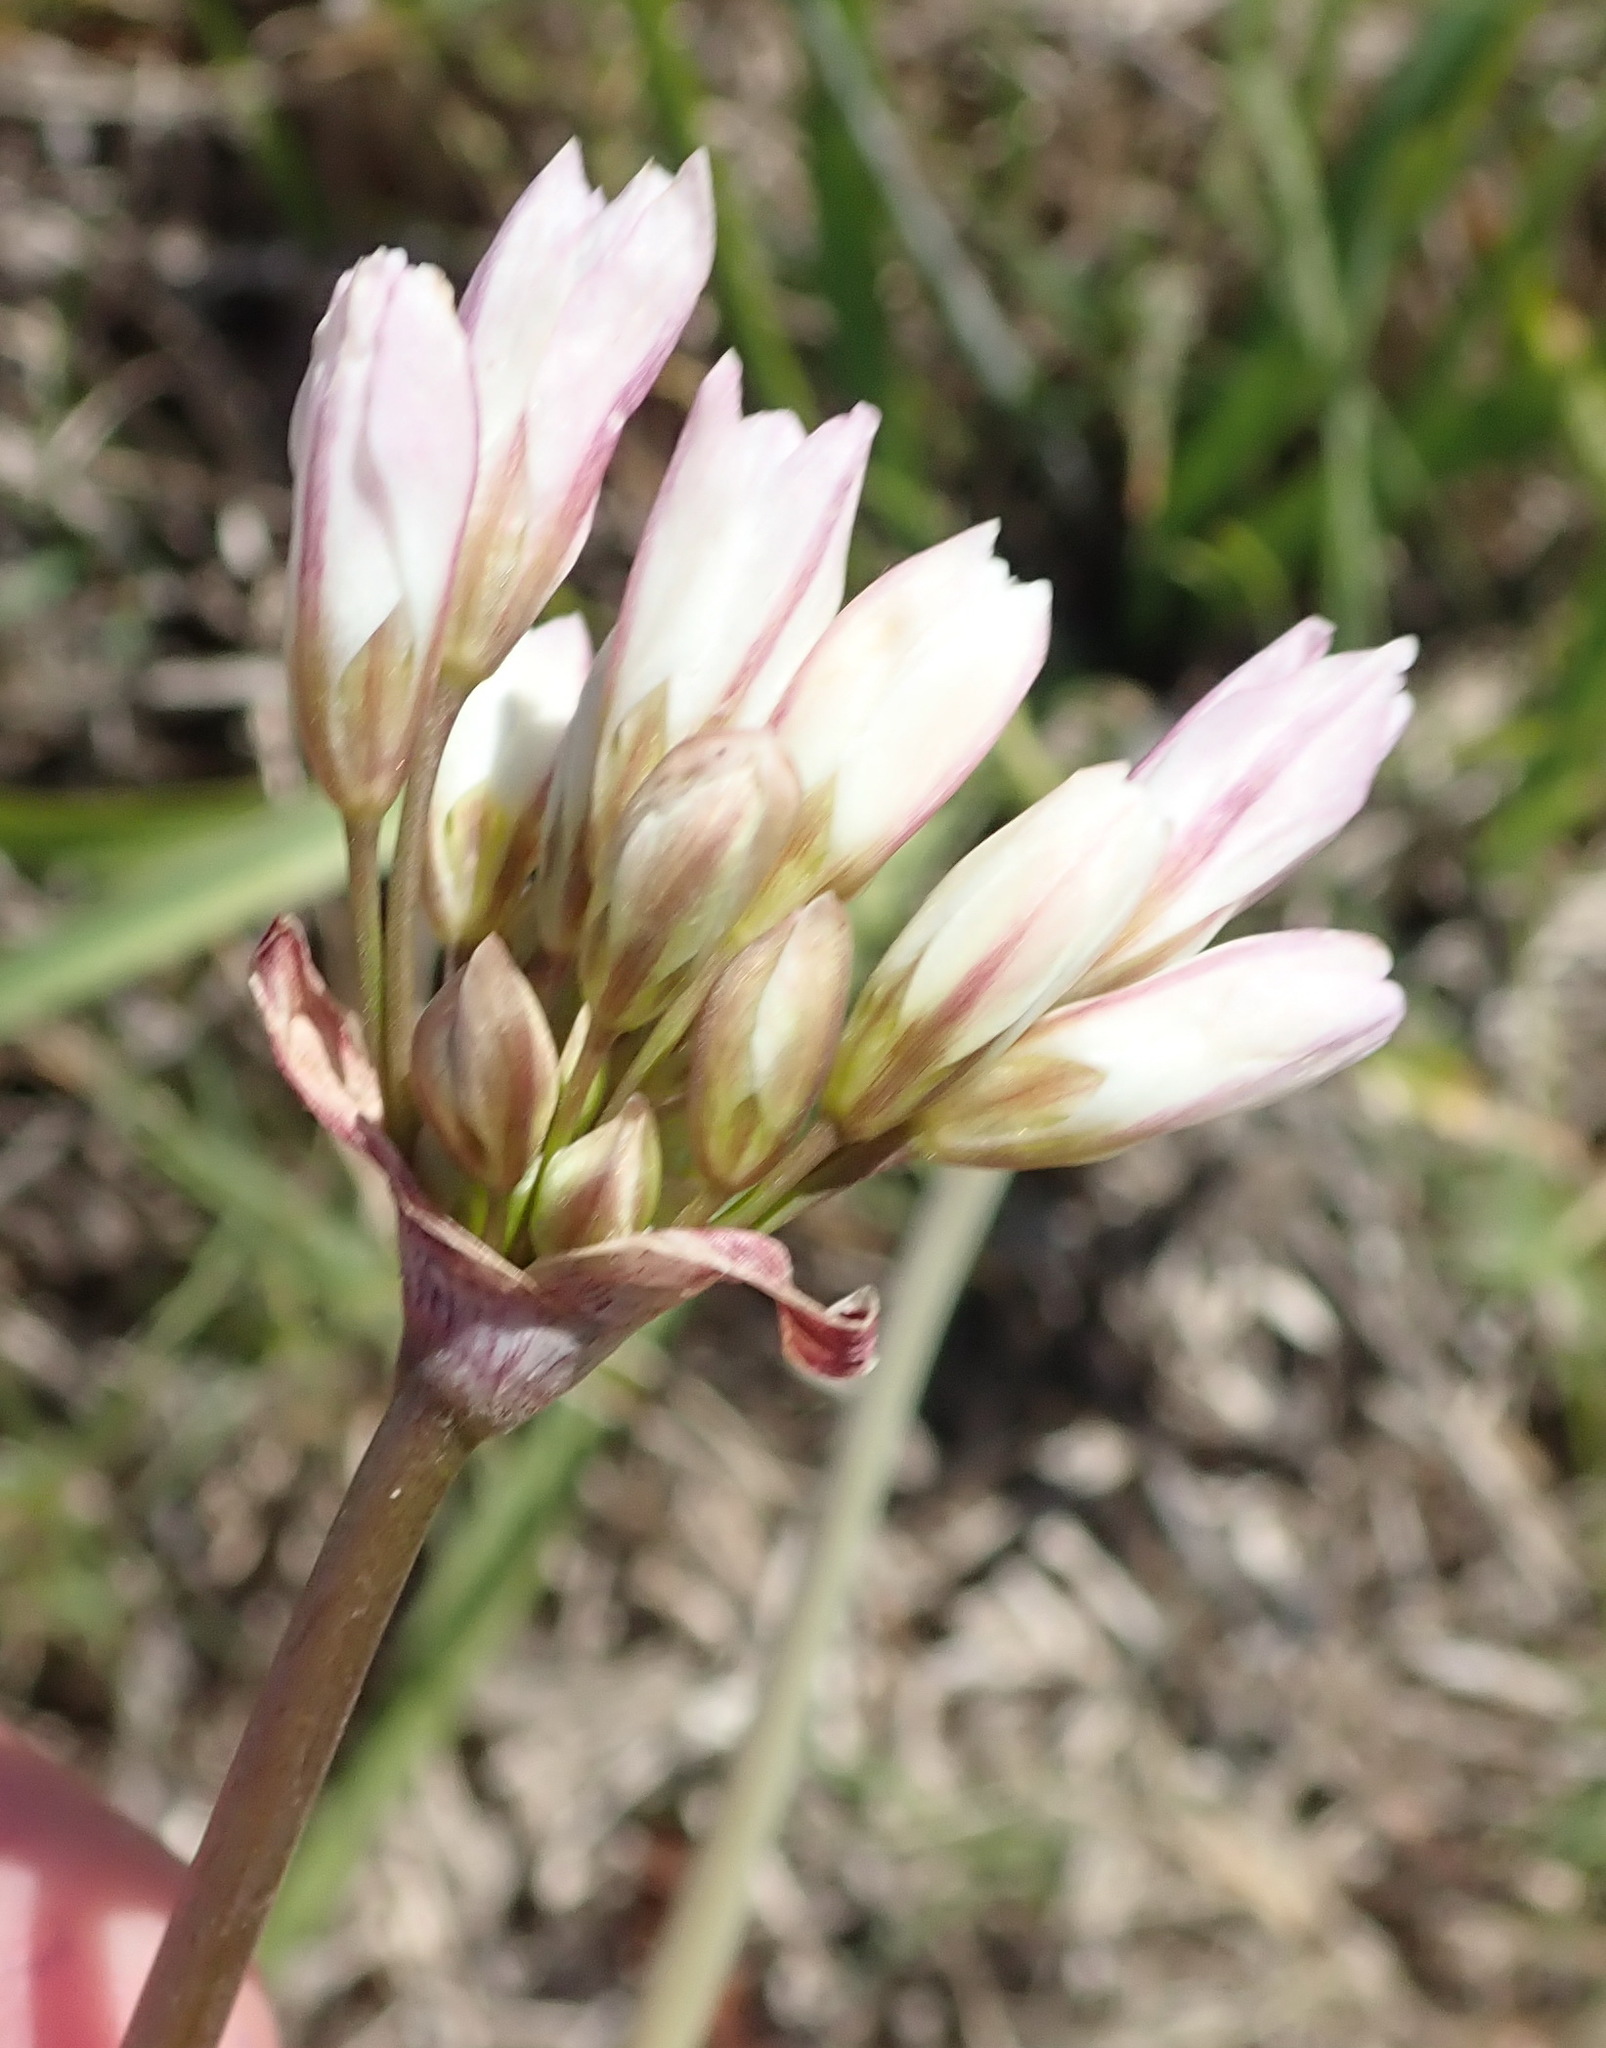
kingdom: Plantae
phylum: Tracheophyta
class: Liliopsida
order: Asparagales
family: Amaryllidaceae
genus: Nothoscordum
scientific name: Nothoscordum gracile
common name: Slender false garlic
